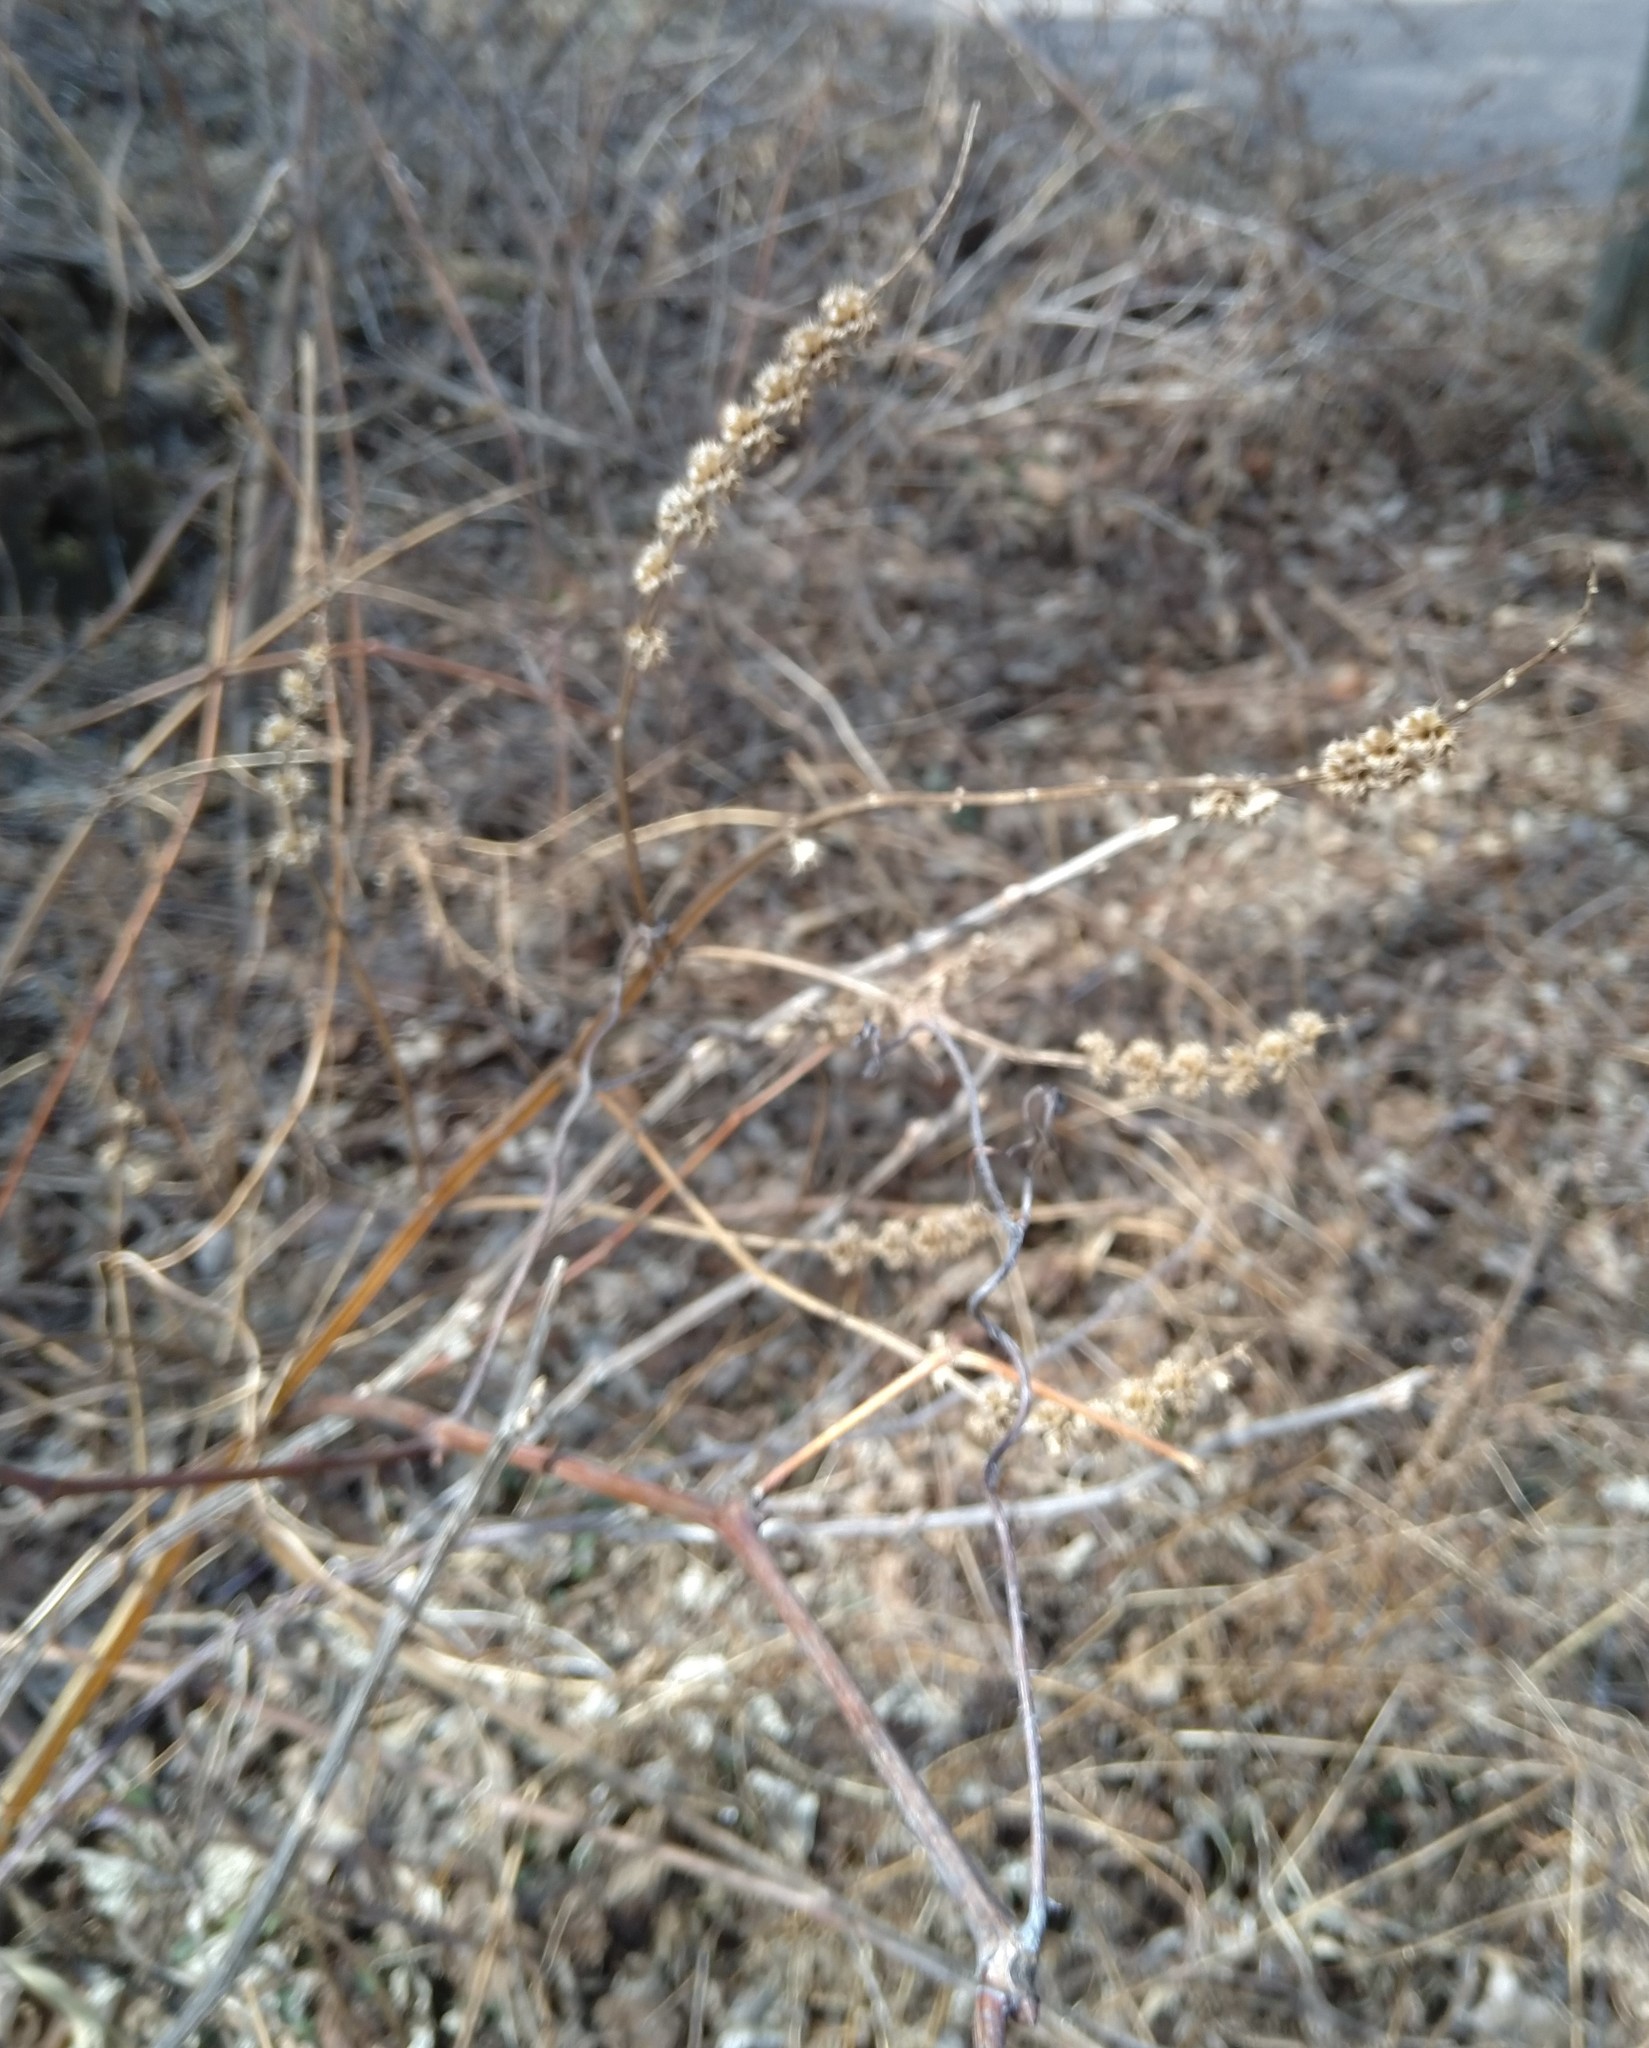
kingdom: Plantae
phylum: Tracheophyta
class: Magnoliopsida
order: Lamiales
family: Lamiaceae
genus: Leonurus
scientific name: Leonurus cardiaca
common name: Motherwort
